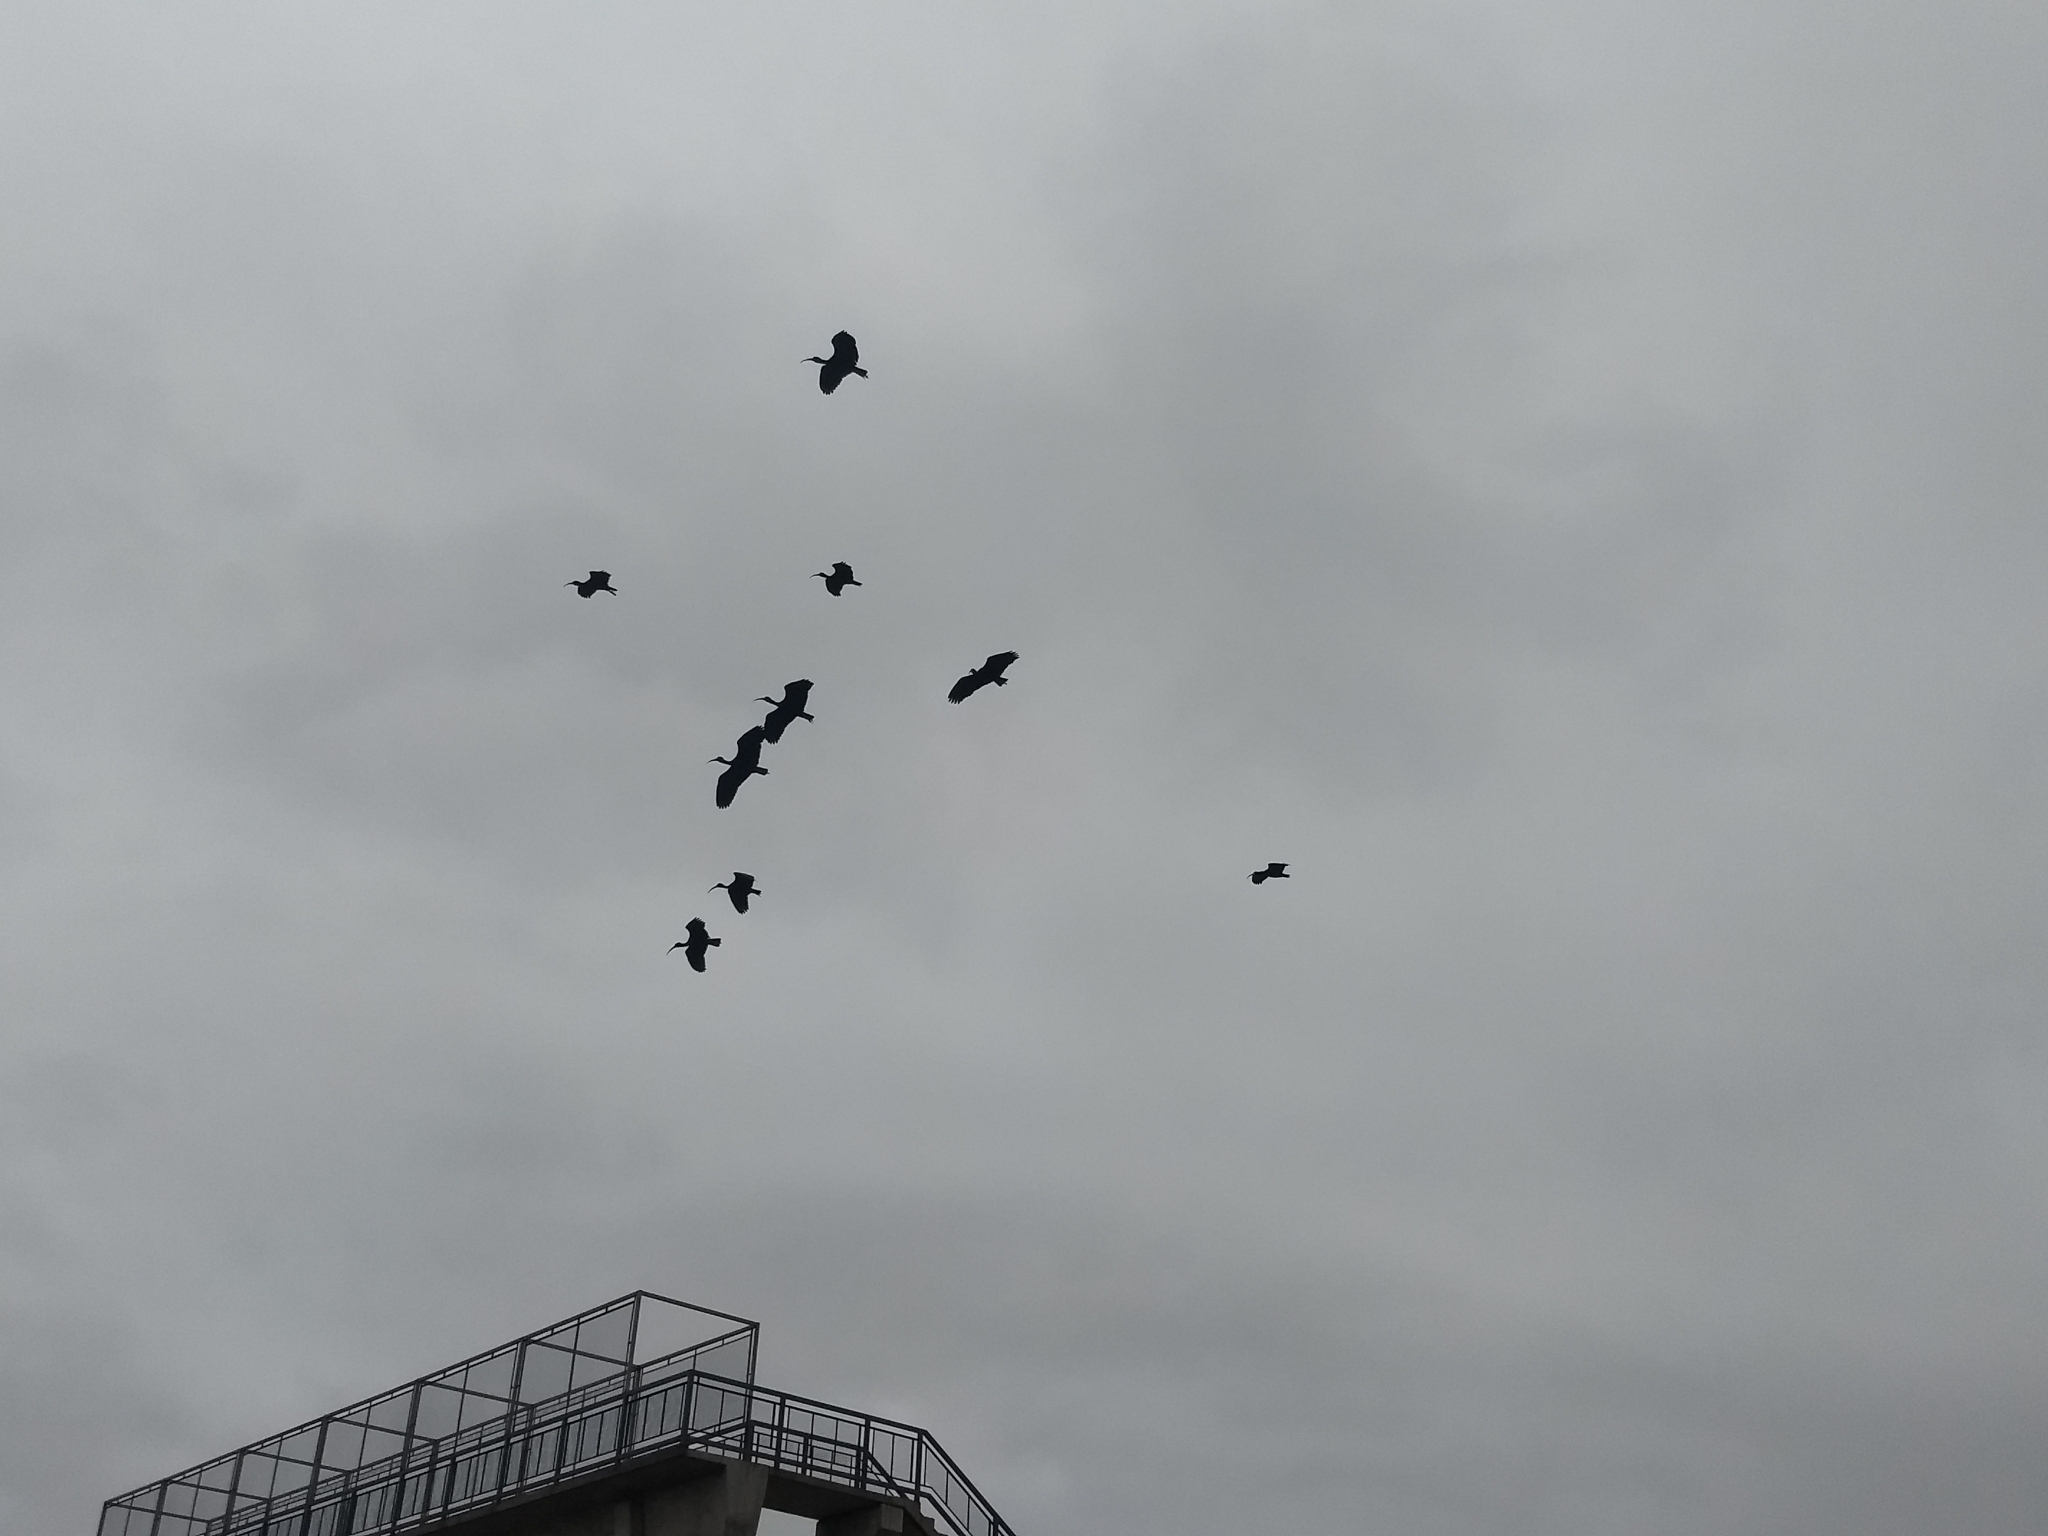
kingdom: Animalia
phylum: Chordata
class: Aves
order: Pelecaniformes
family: Threskiornithidae
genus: Phimosus
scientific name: Phimosus infuscatus
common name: Bare-faced ibis
